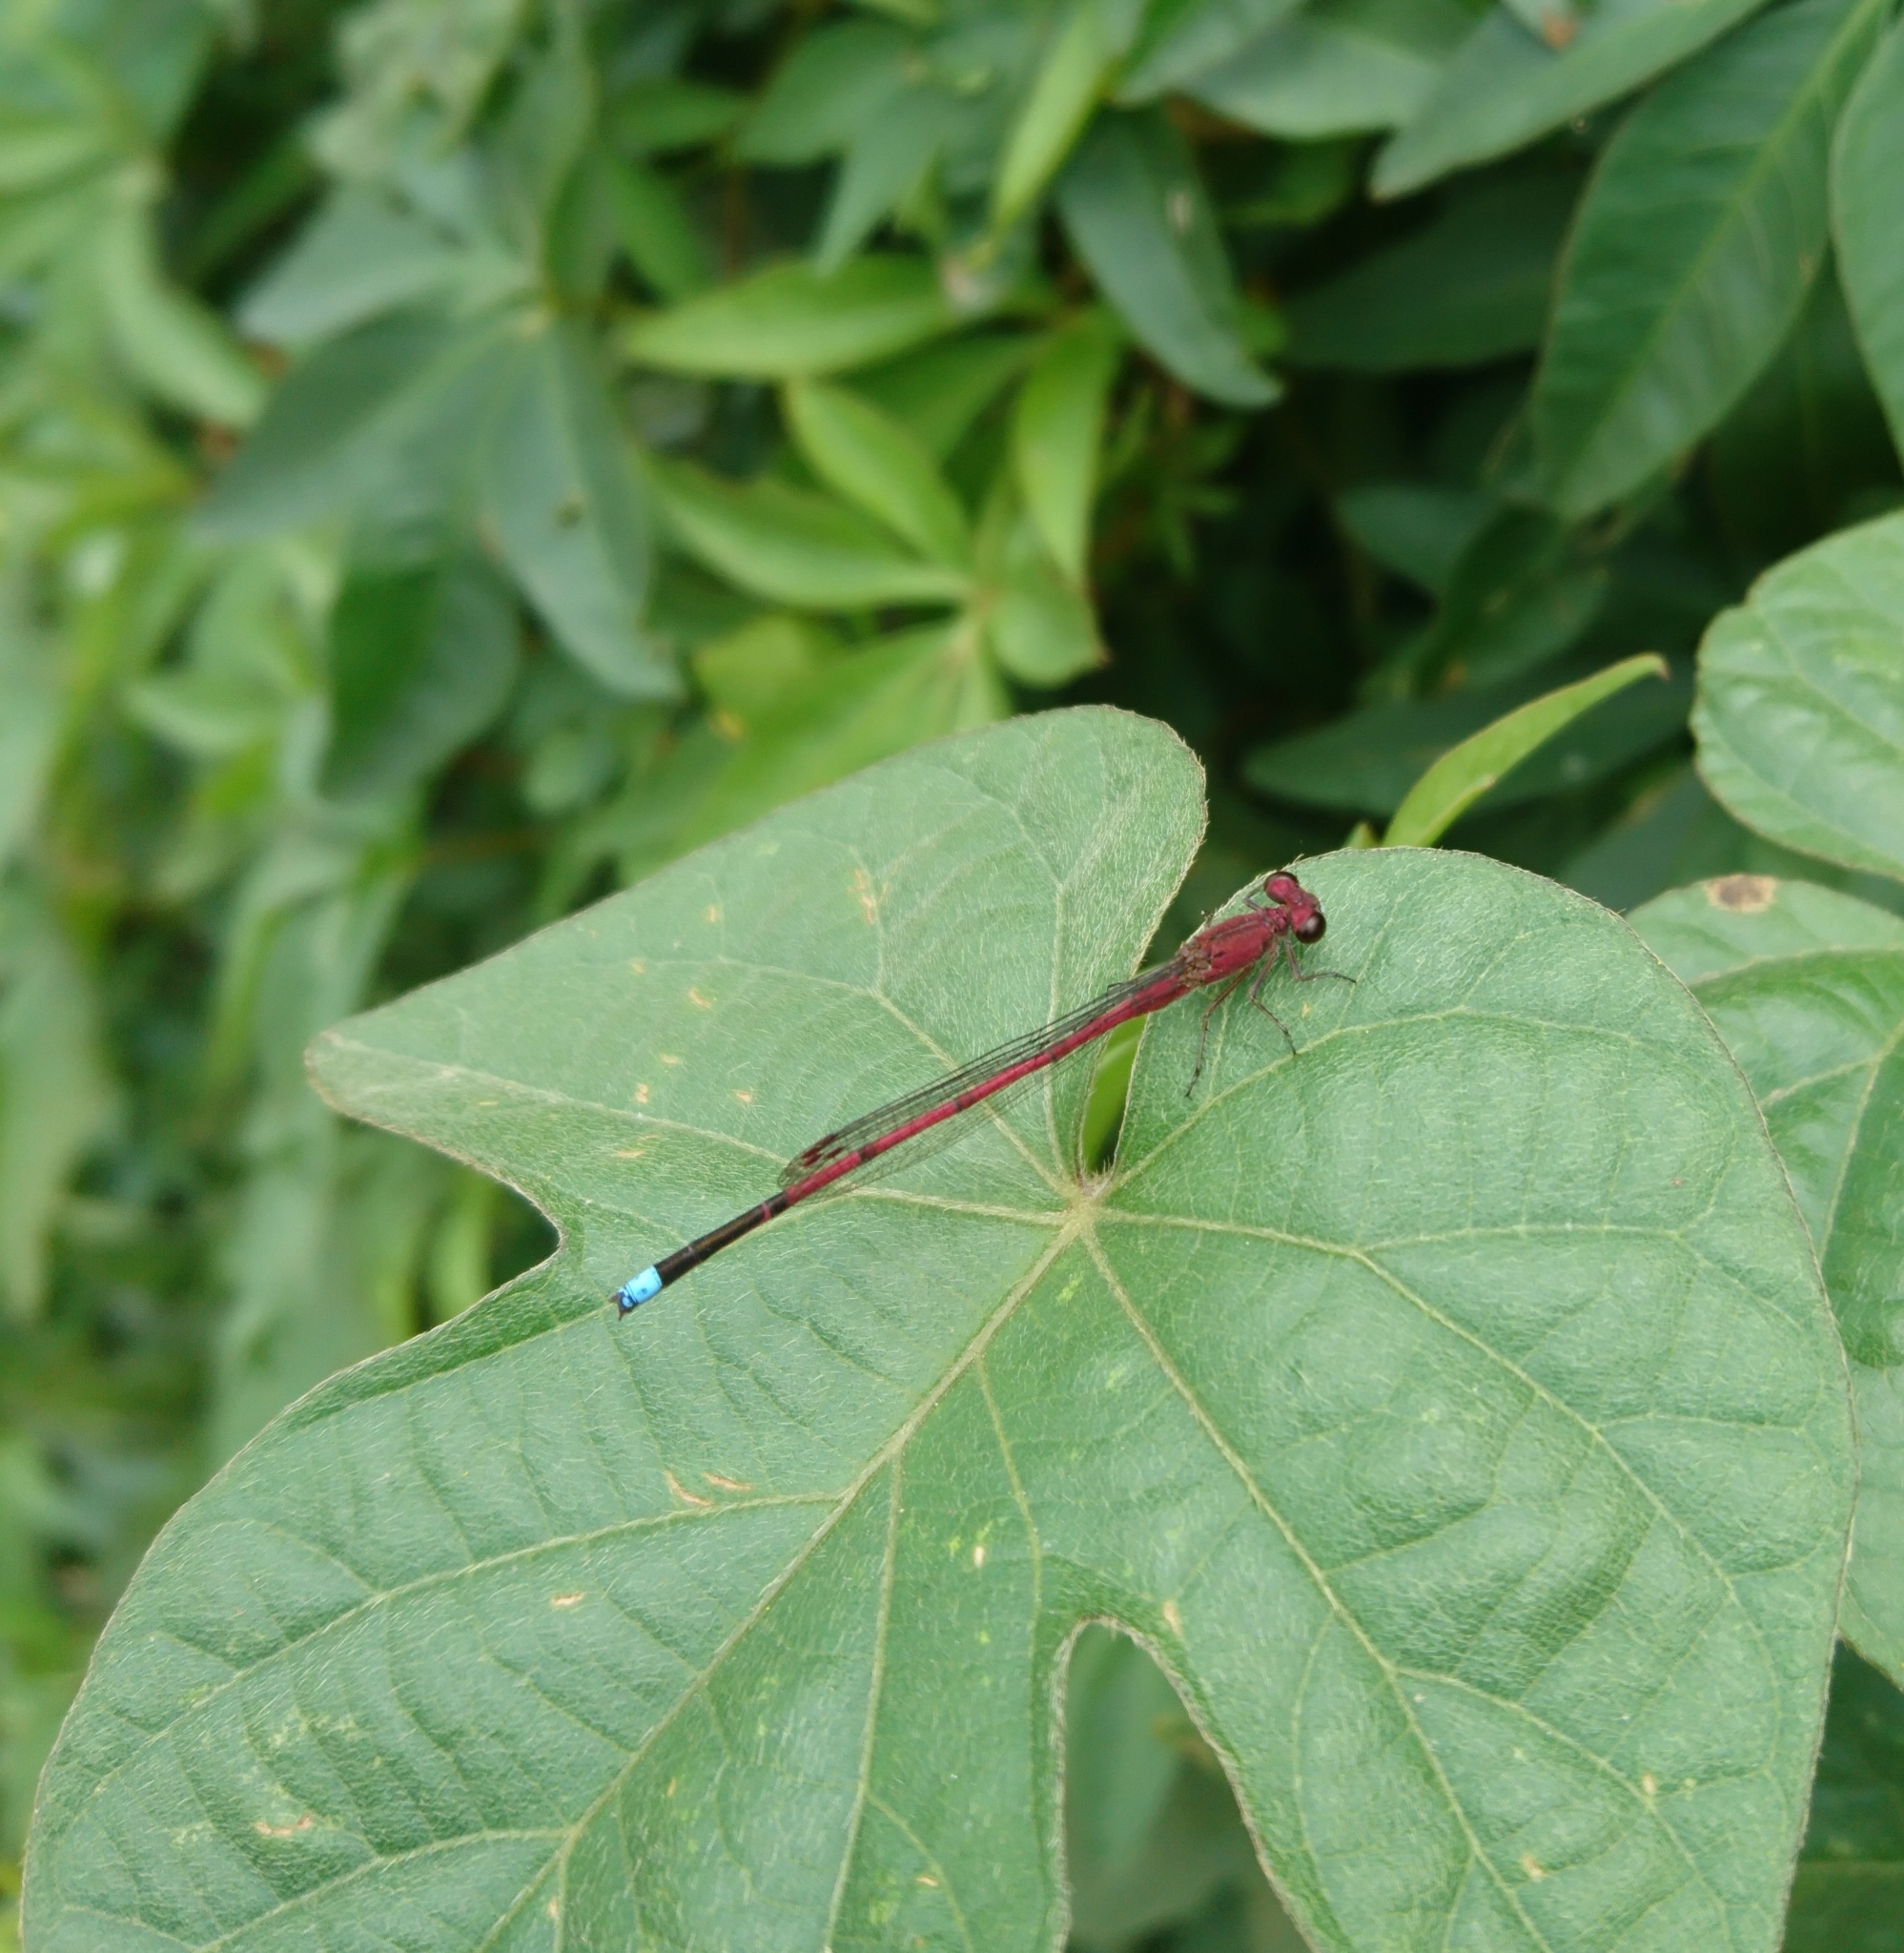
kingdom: Animalia
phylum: Arthropoda
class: Insecta
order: Odonata
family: Coenagrionidae
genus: Oxyagrion
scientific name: Oxyagrion terminale
